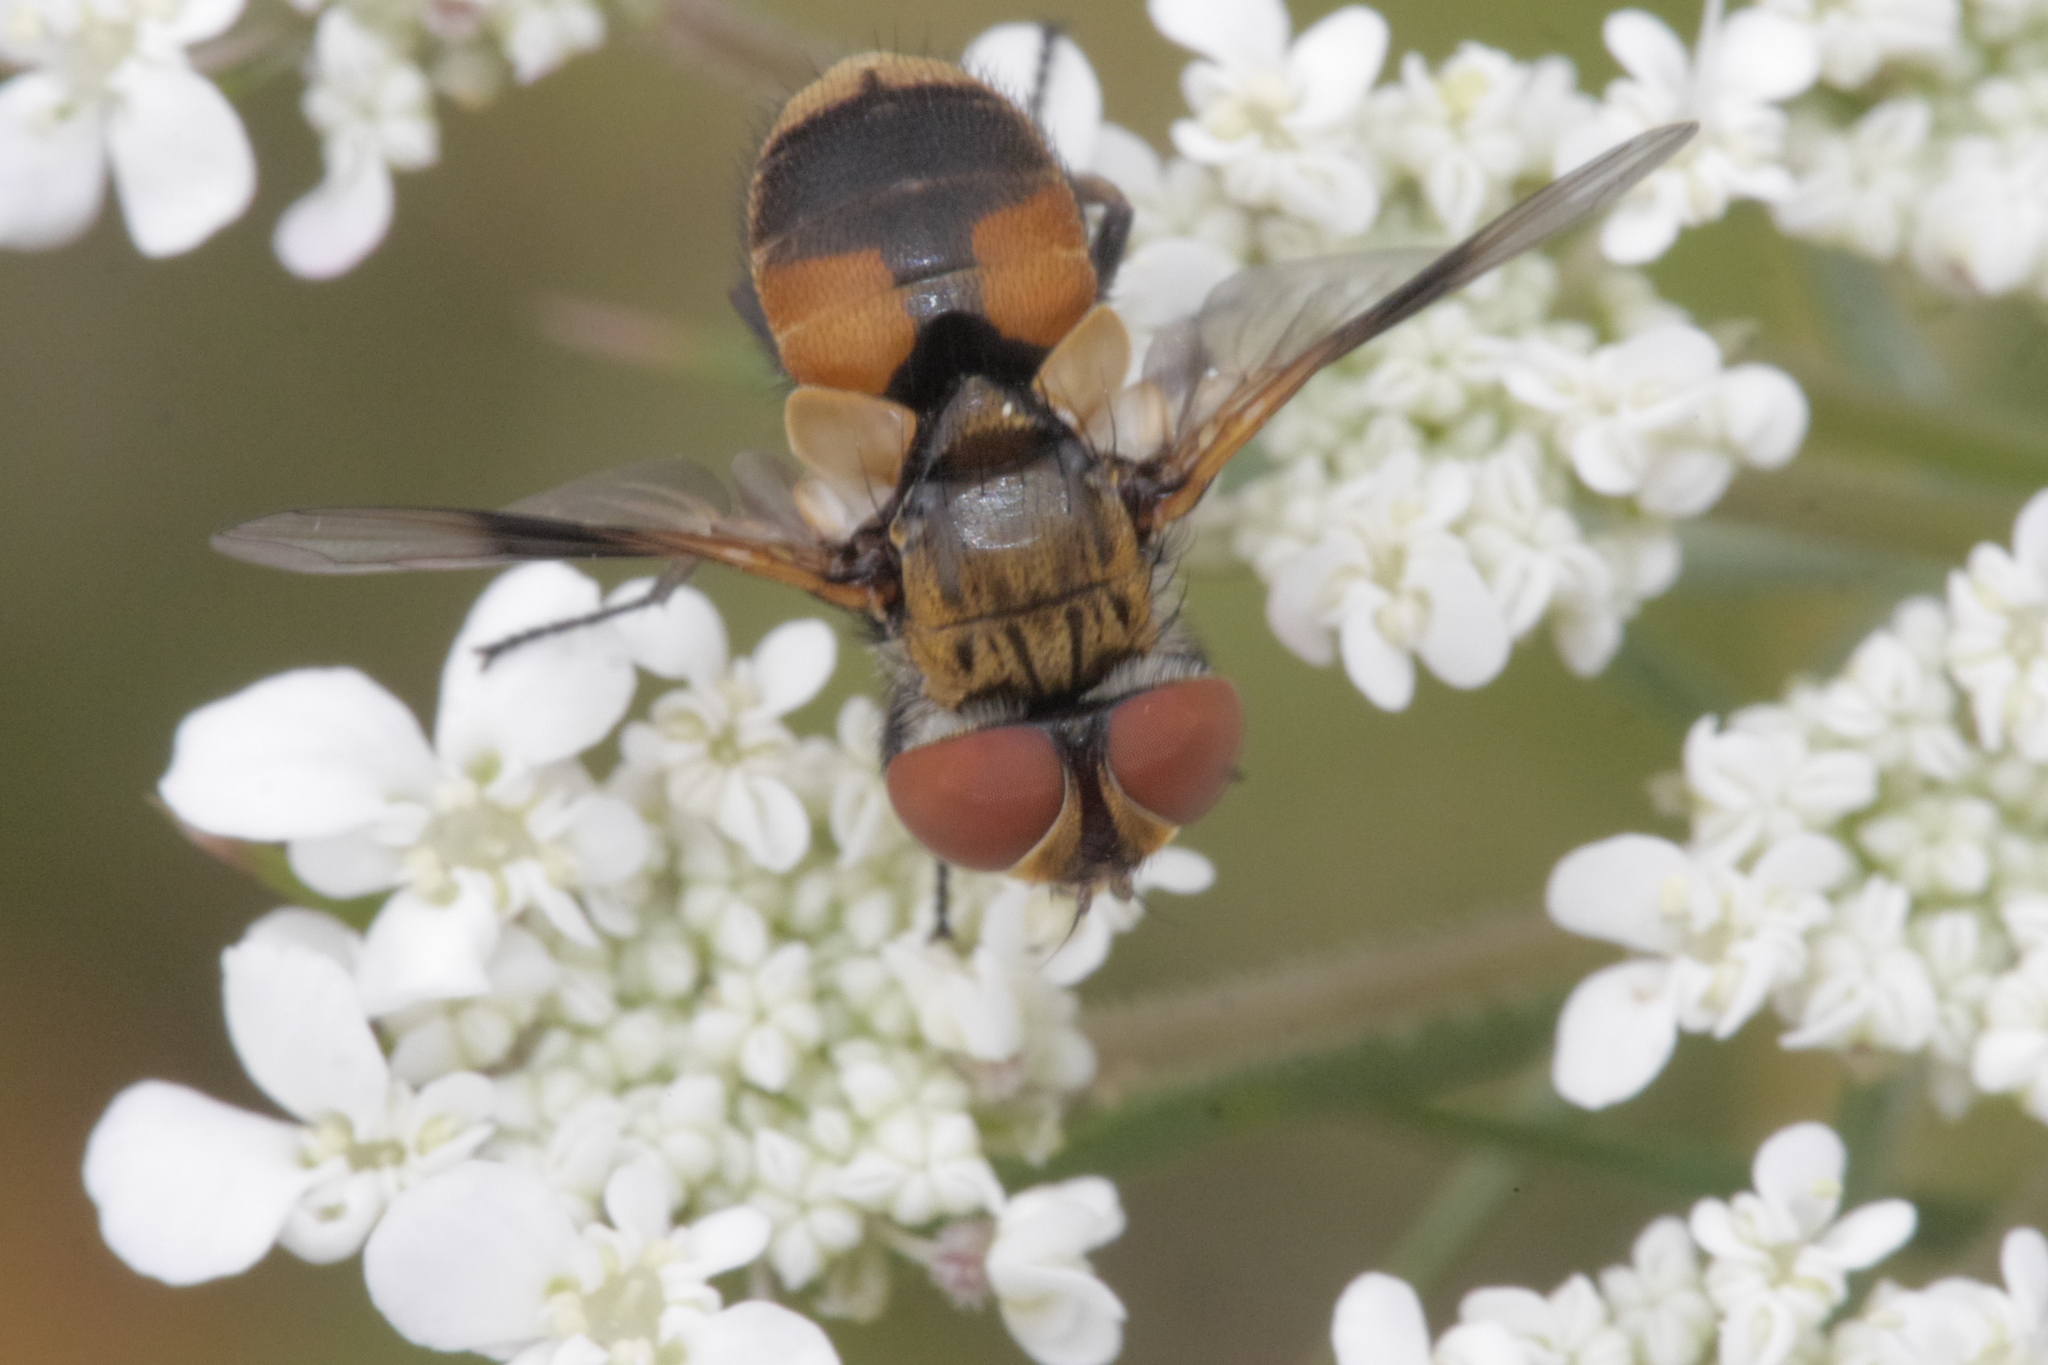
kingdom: Animalia
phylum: Arthropoda
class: Insecta
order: Diptera
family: Tachinidae
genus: Ectophasia
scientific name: Ectophasia crassipennis
